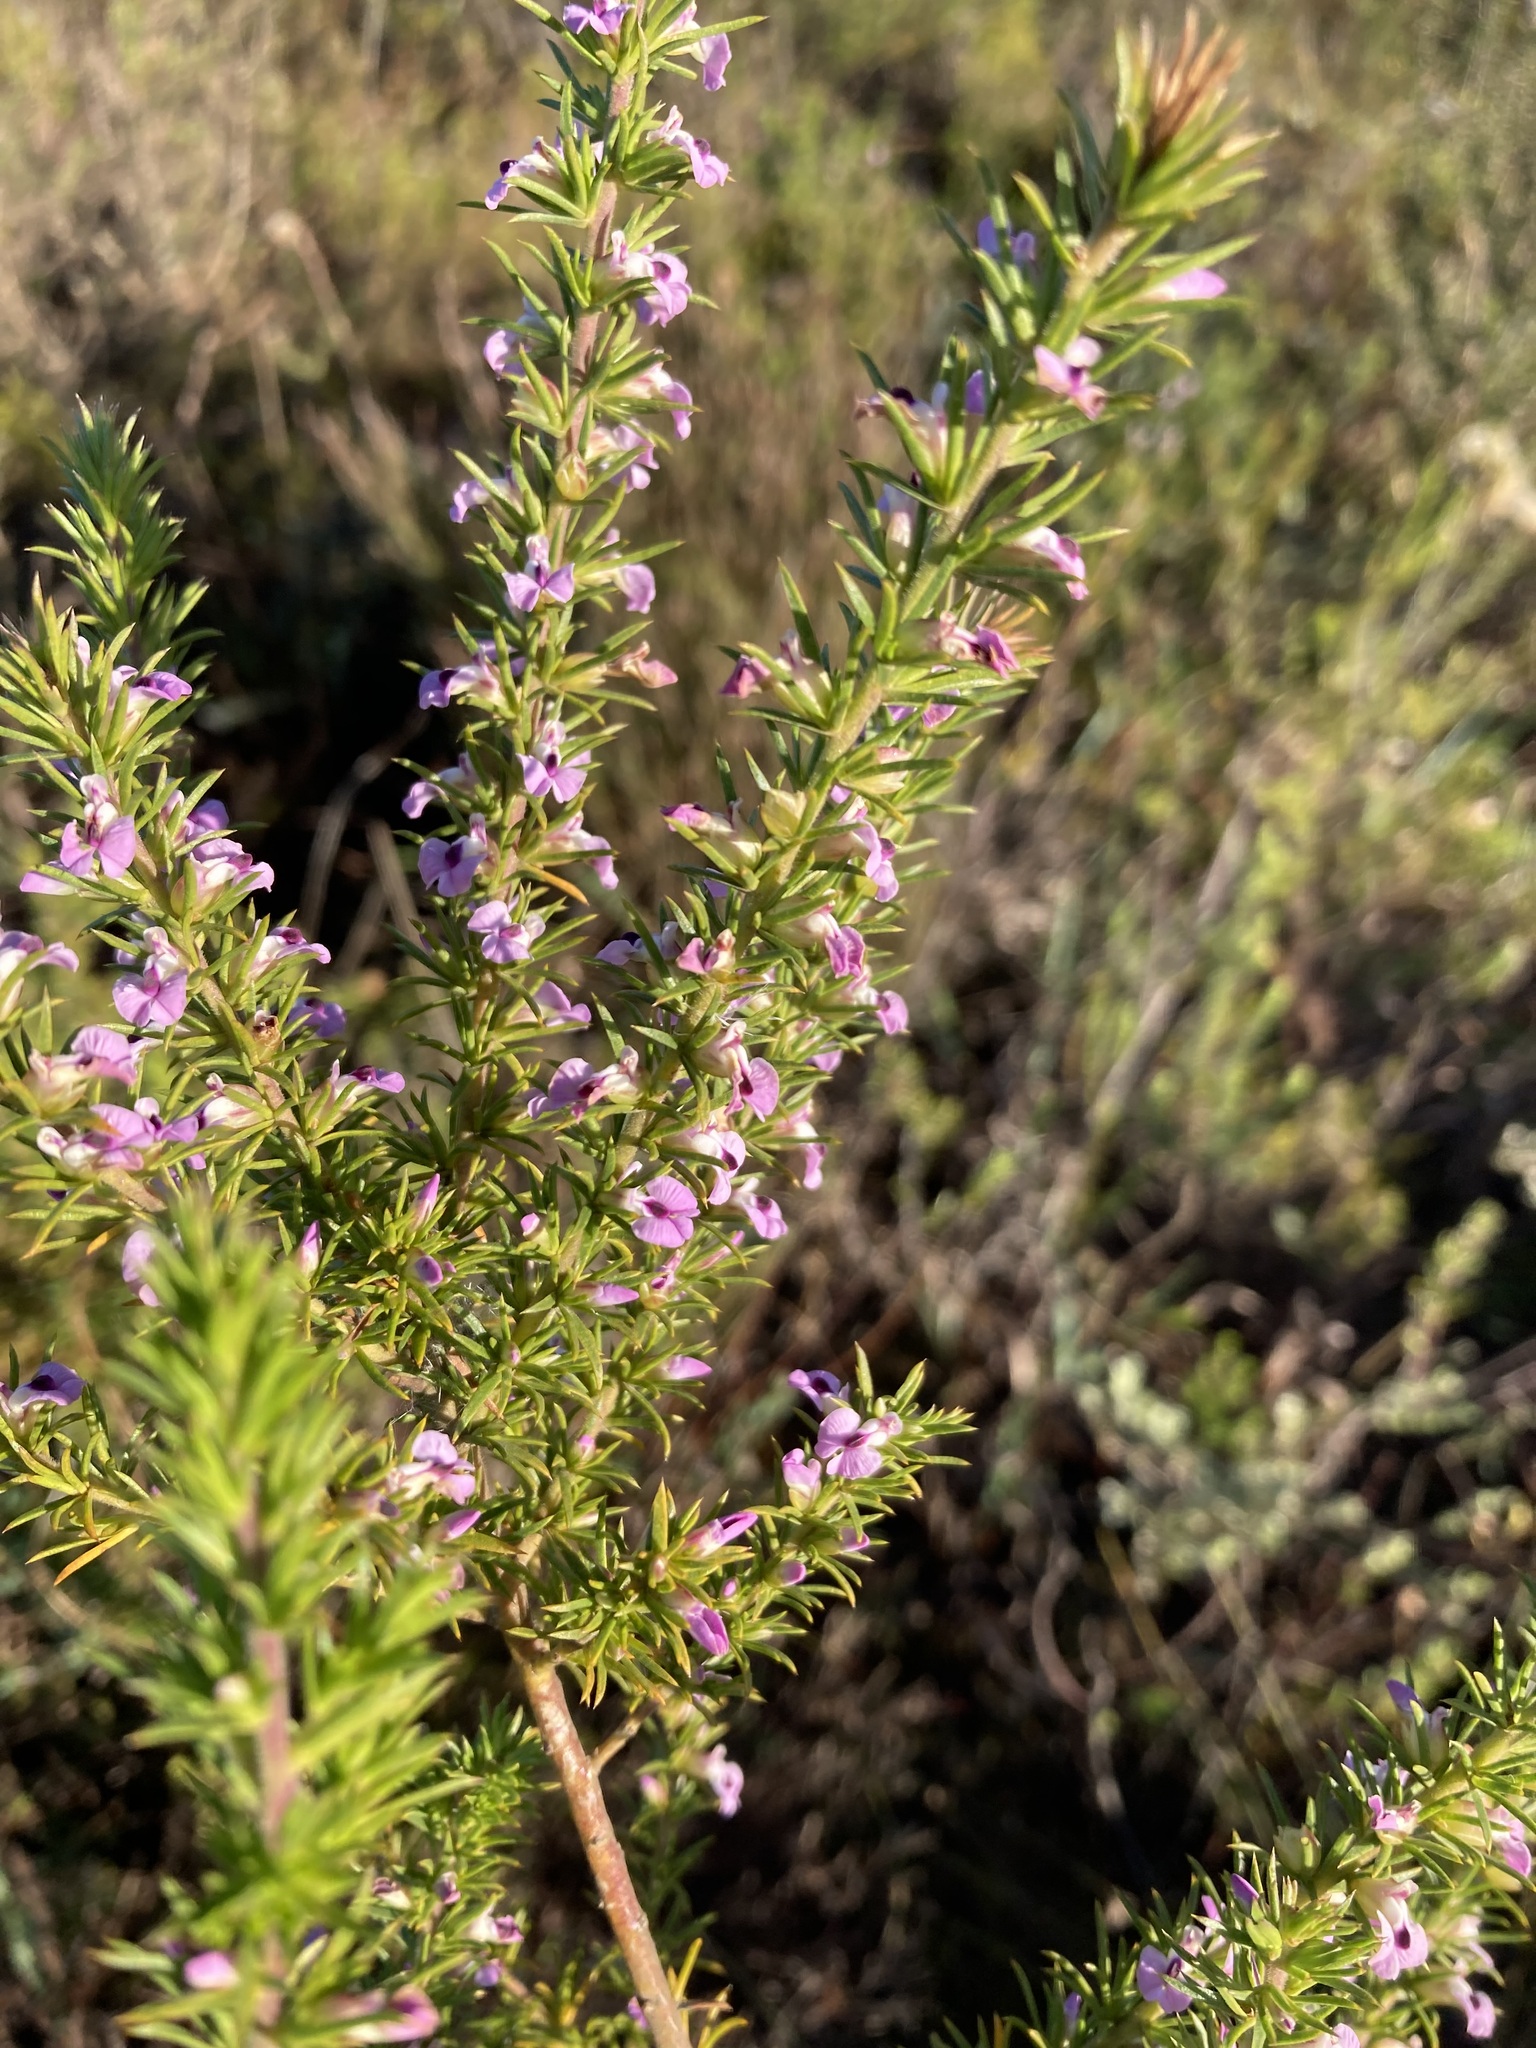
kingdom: Plantae
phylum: Tracheophyta
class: Magnoliopsida
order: Fabales
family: Polygalaceae
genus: Muraltia
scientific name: Muraltia ericifolia
